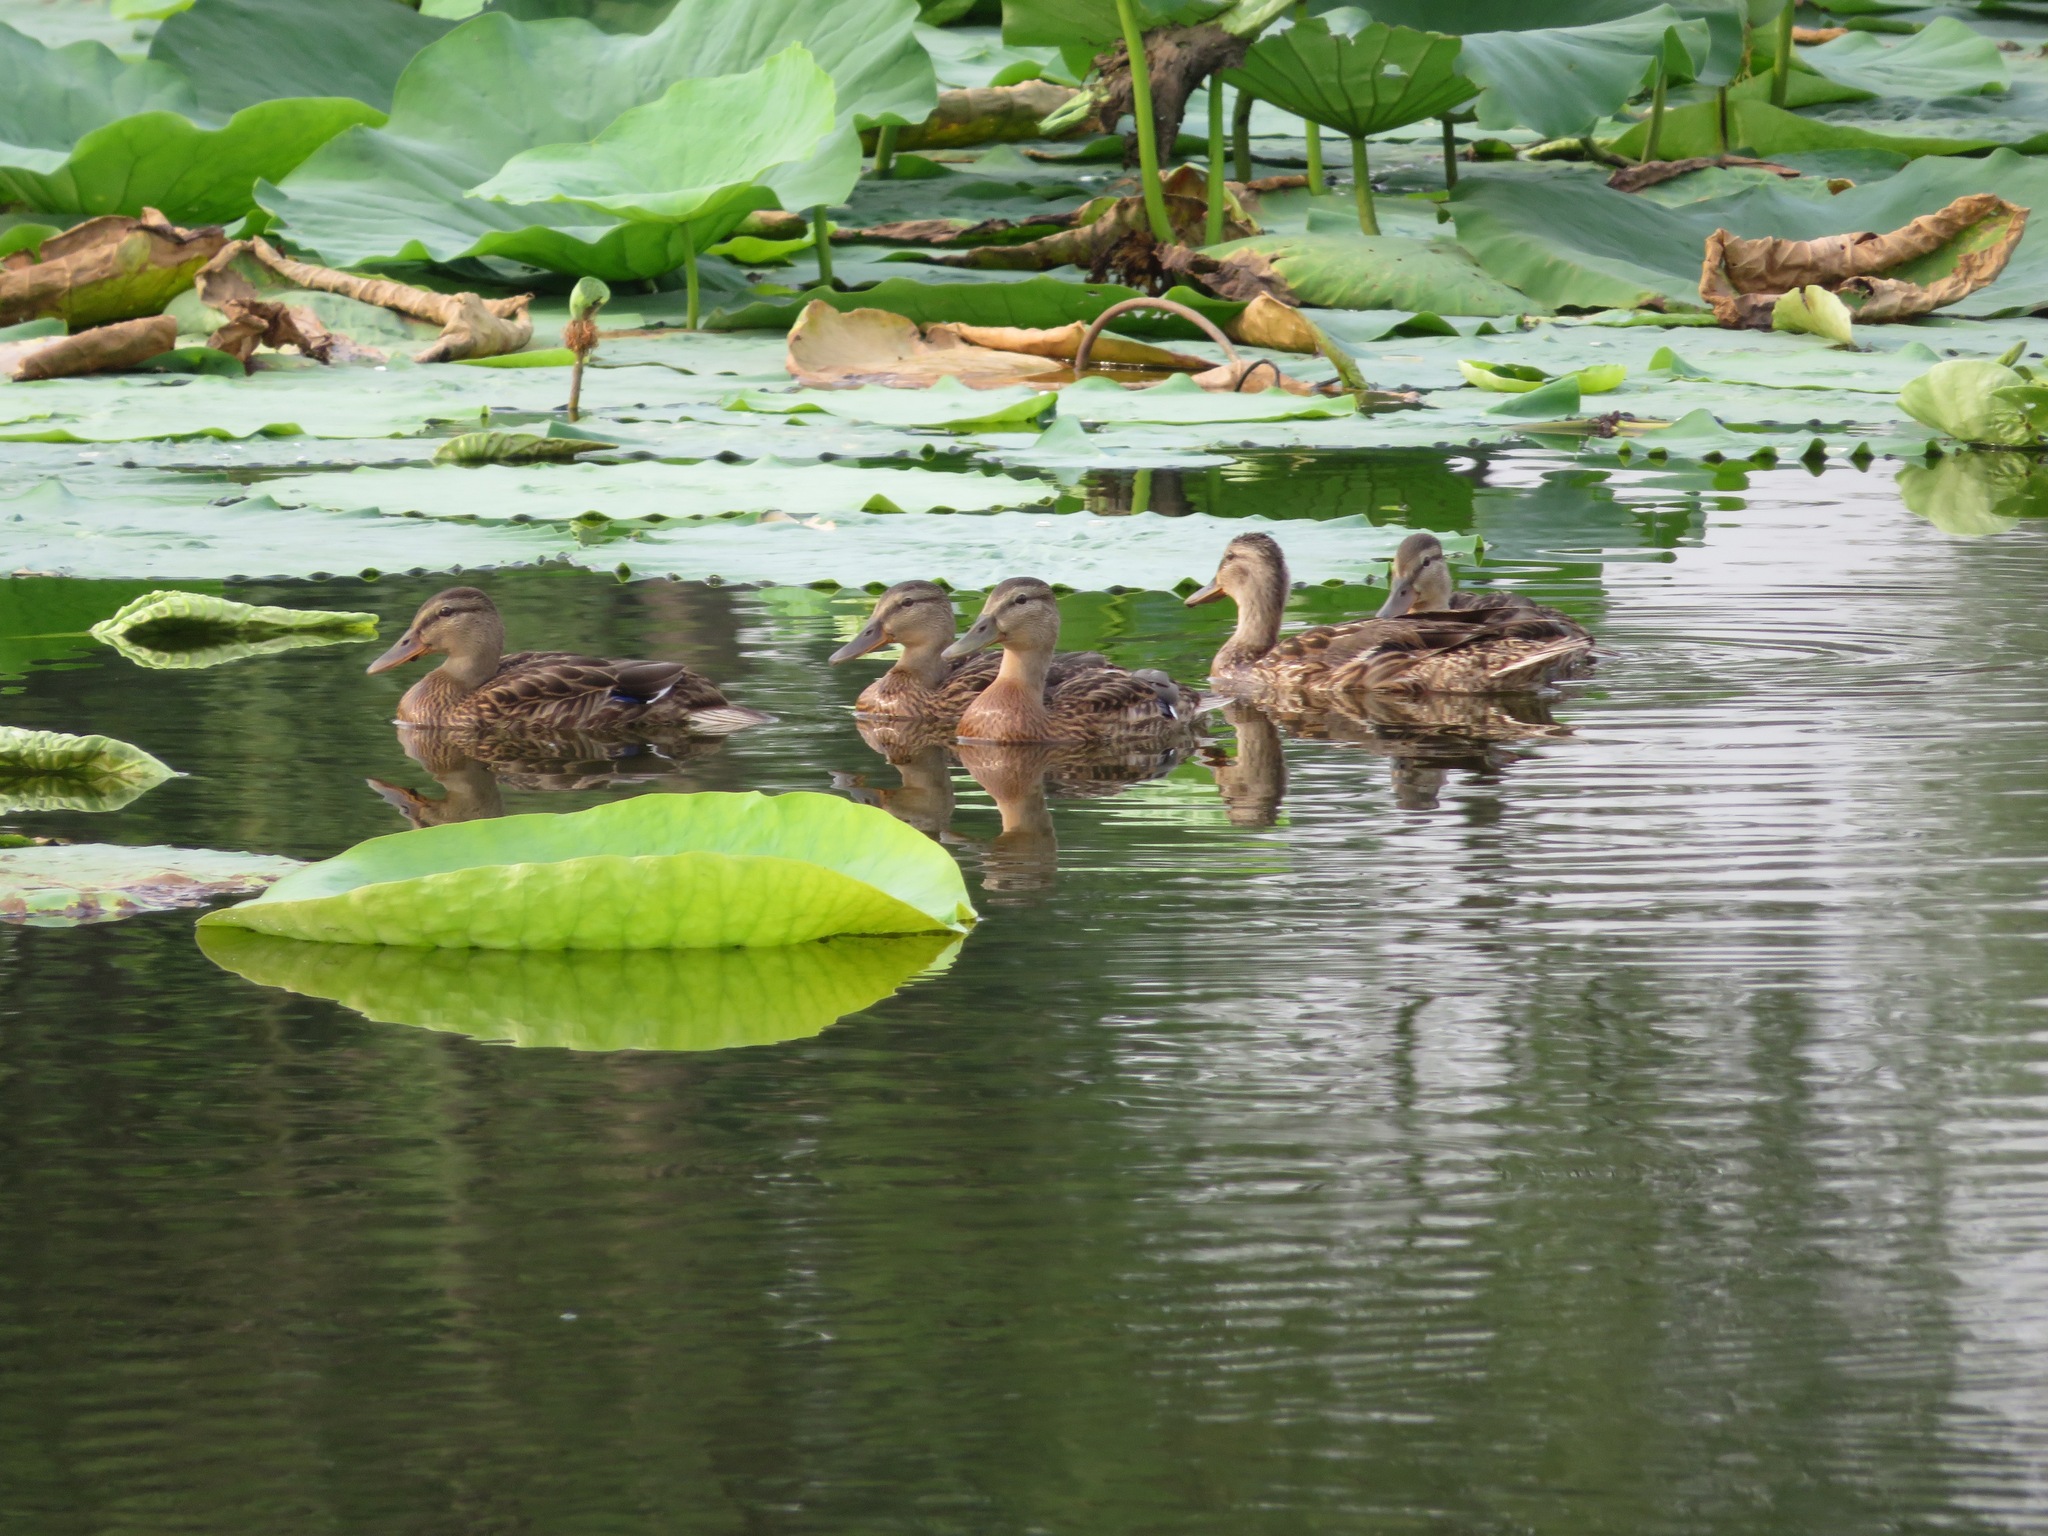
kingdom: Animalia
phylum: Chordata
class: Aves
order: Anseriformes
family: Anatidae
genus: Anas
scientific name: Anas platyrhynchos
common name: Mallard
